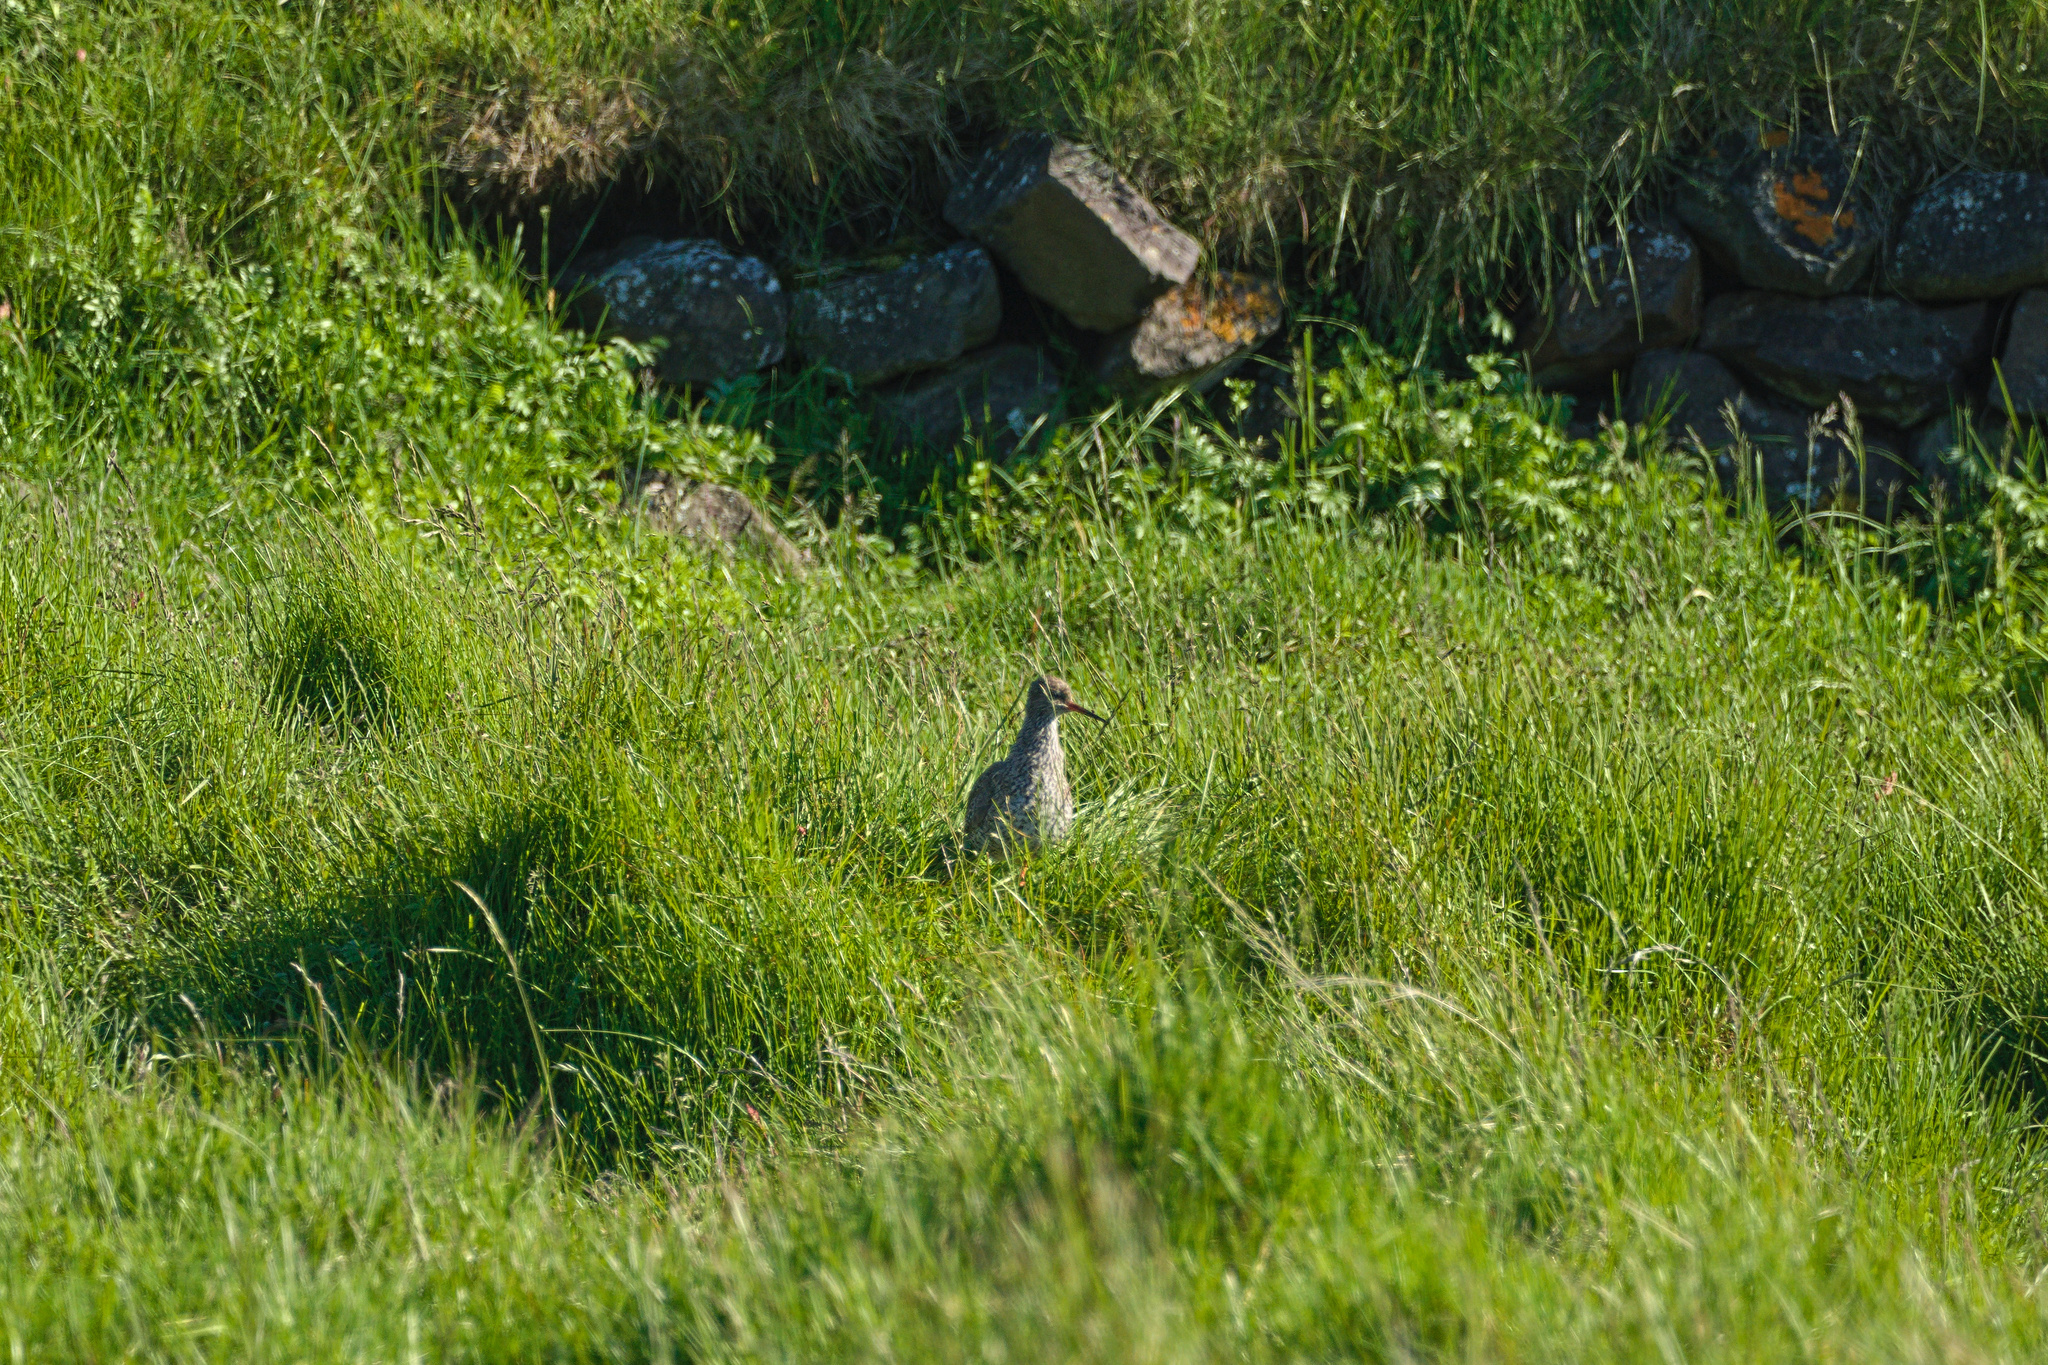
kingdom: Animalia
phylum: Chordata
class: Aves
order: Charadriiformes
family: Scolopacidae
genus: Tringa
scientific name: Tringa totanus
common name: Common redshank
